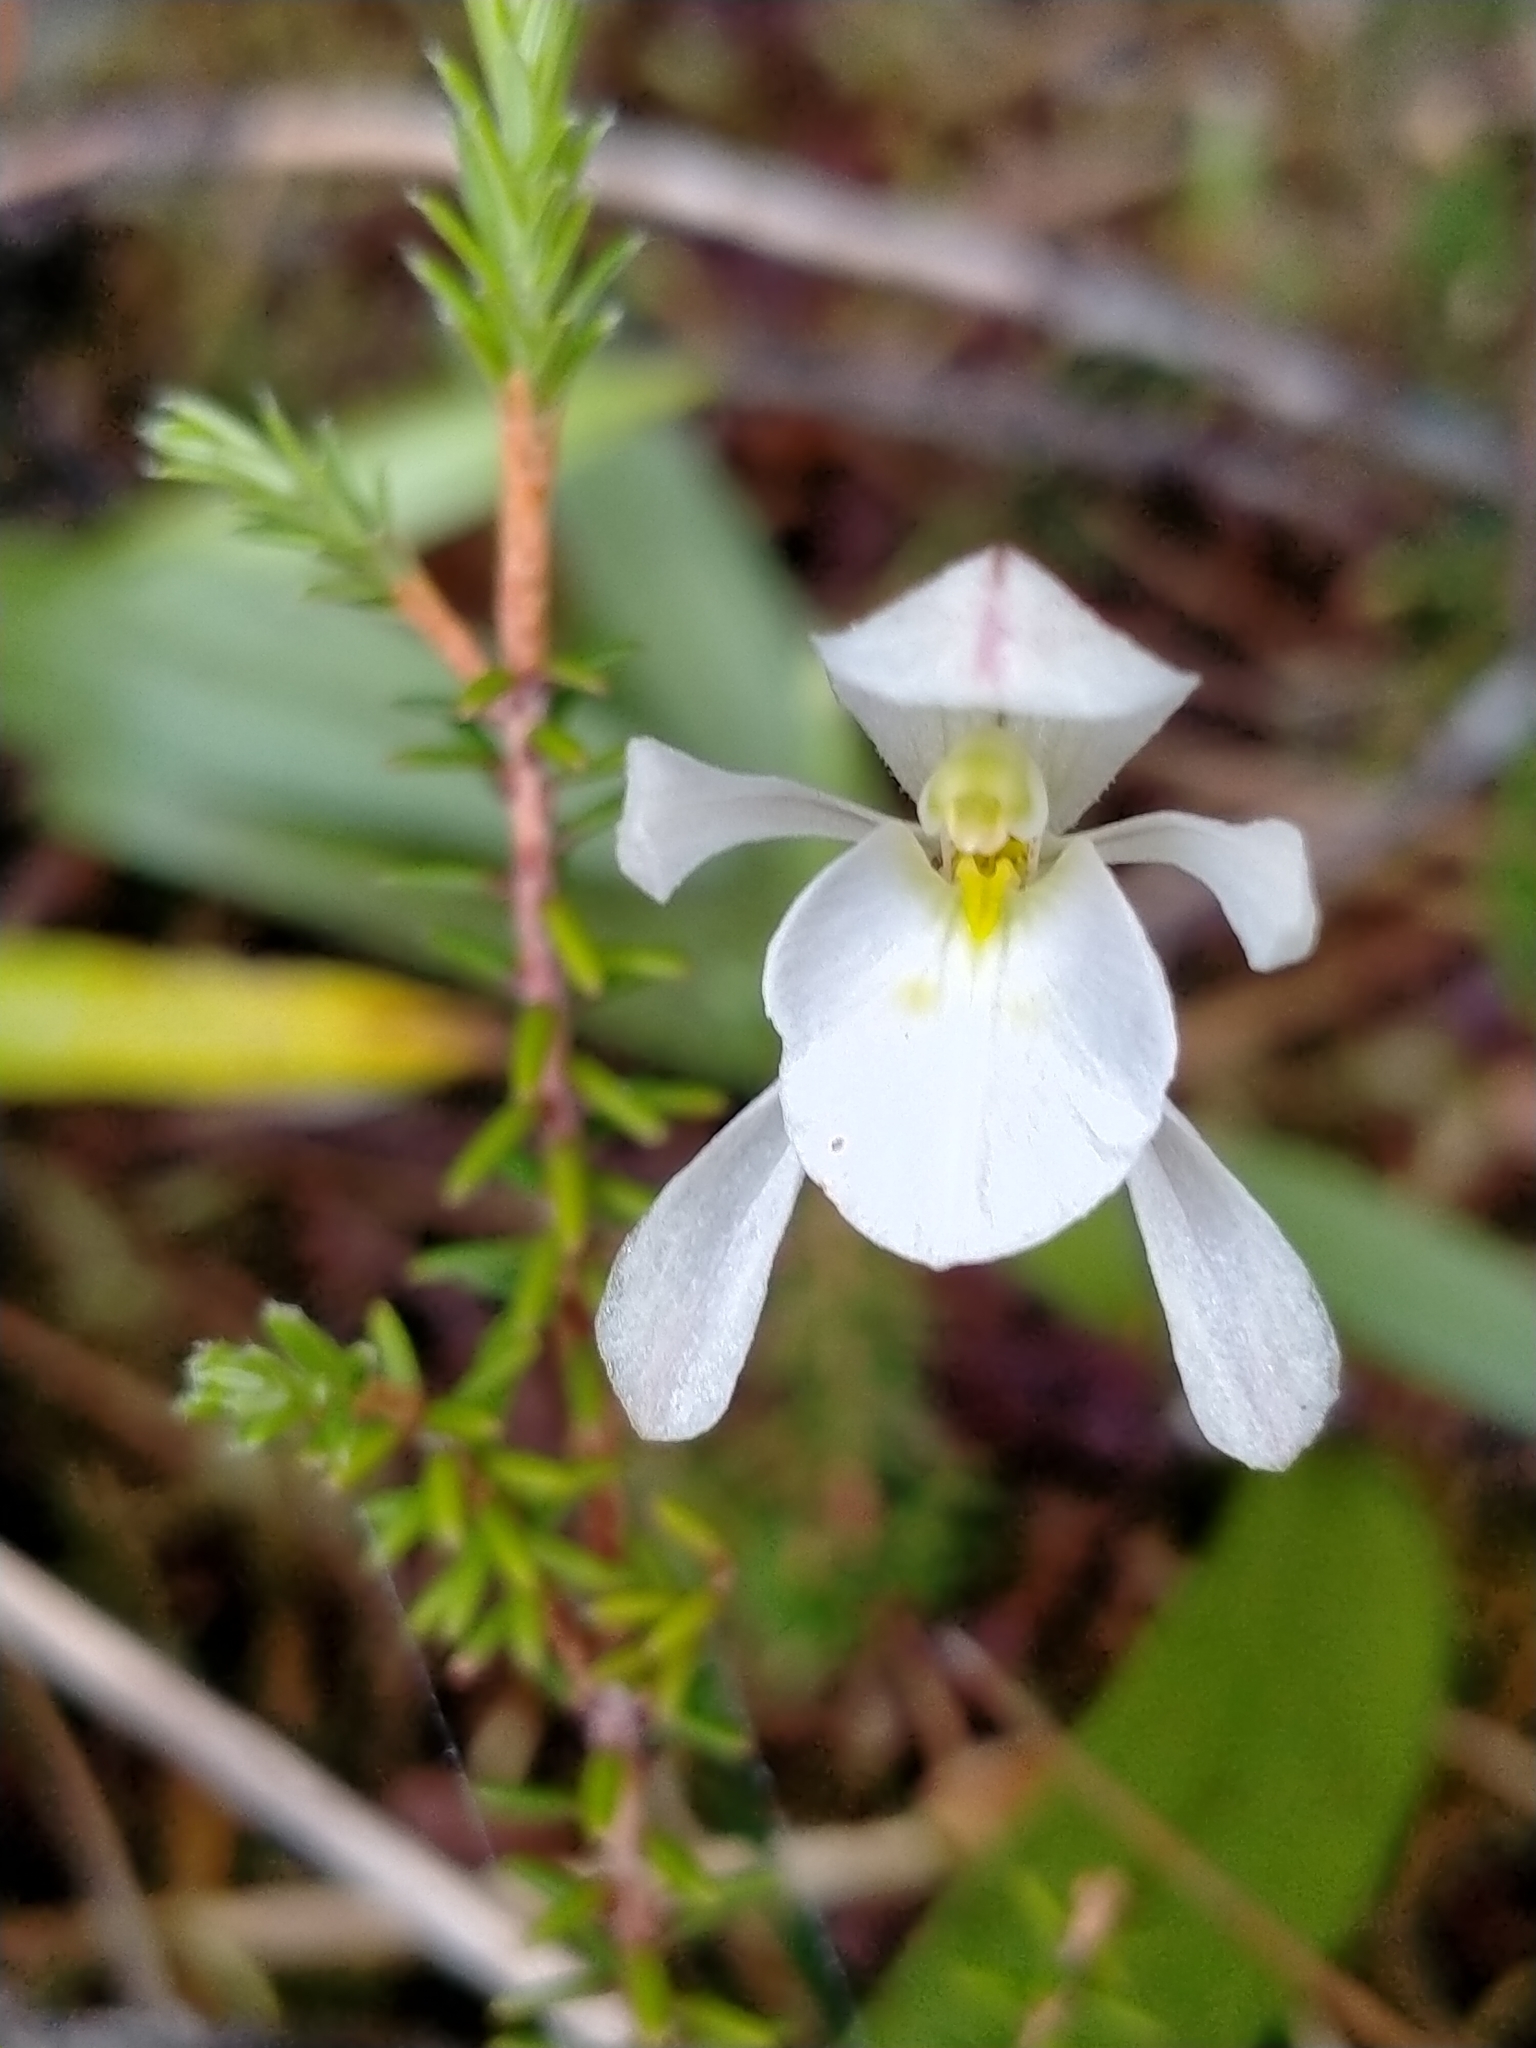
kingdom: Plantae
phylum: Tracheophyta
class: Liliopsida
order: Asparagales
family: Orchidaceae
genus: Aporostylis
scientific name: Aporostylis bifolia
